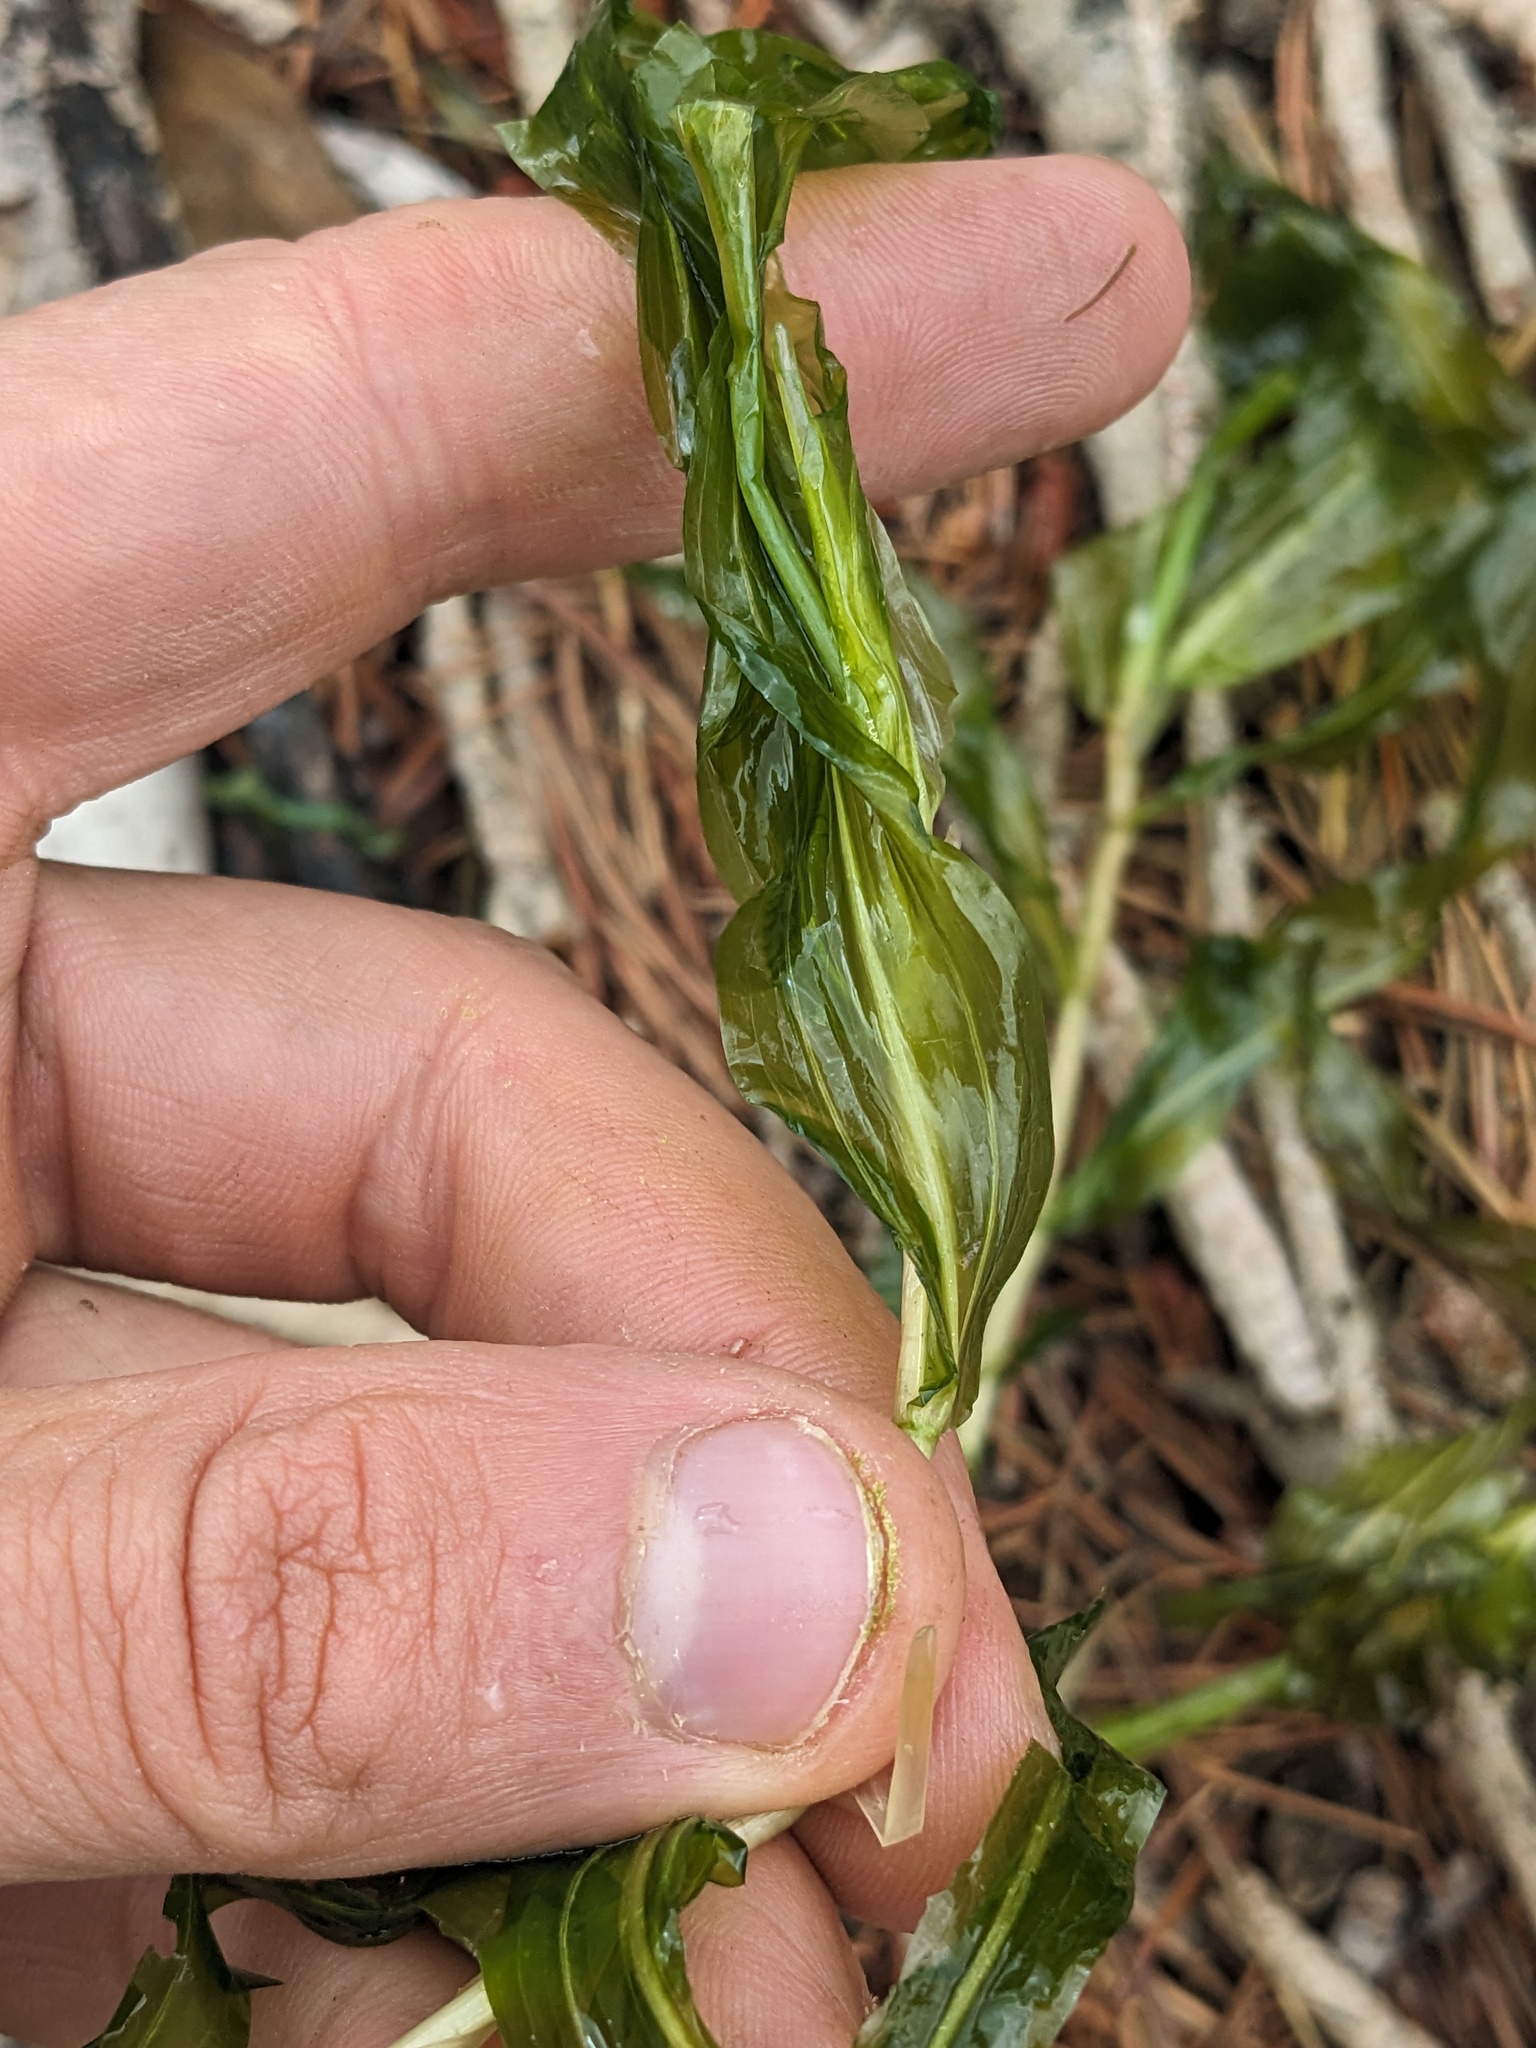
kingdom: Plantae
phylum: Tracheophyta
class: Liliopsida
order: Alismatales
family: Potamogetonaceae
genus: Potamogeton
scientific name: Potamogeton praelongus
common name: Long-stalked pondweed
